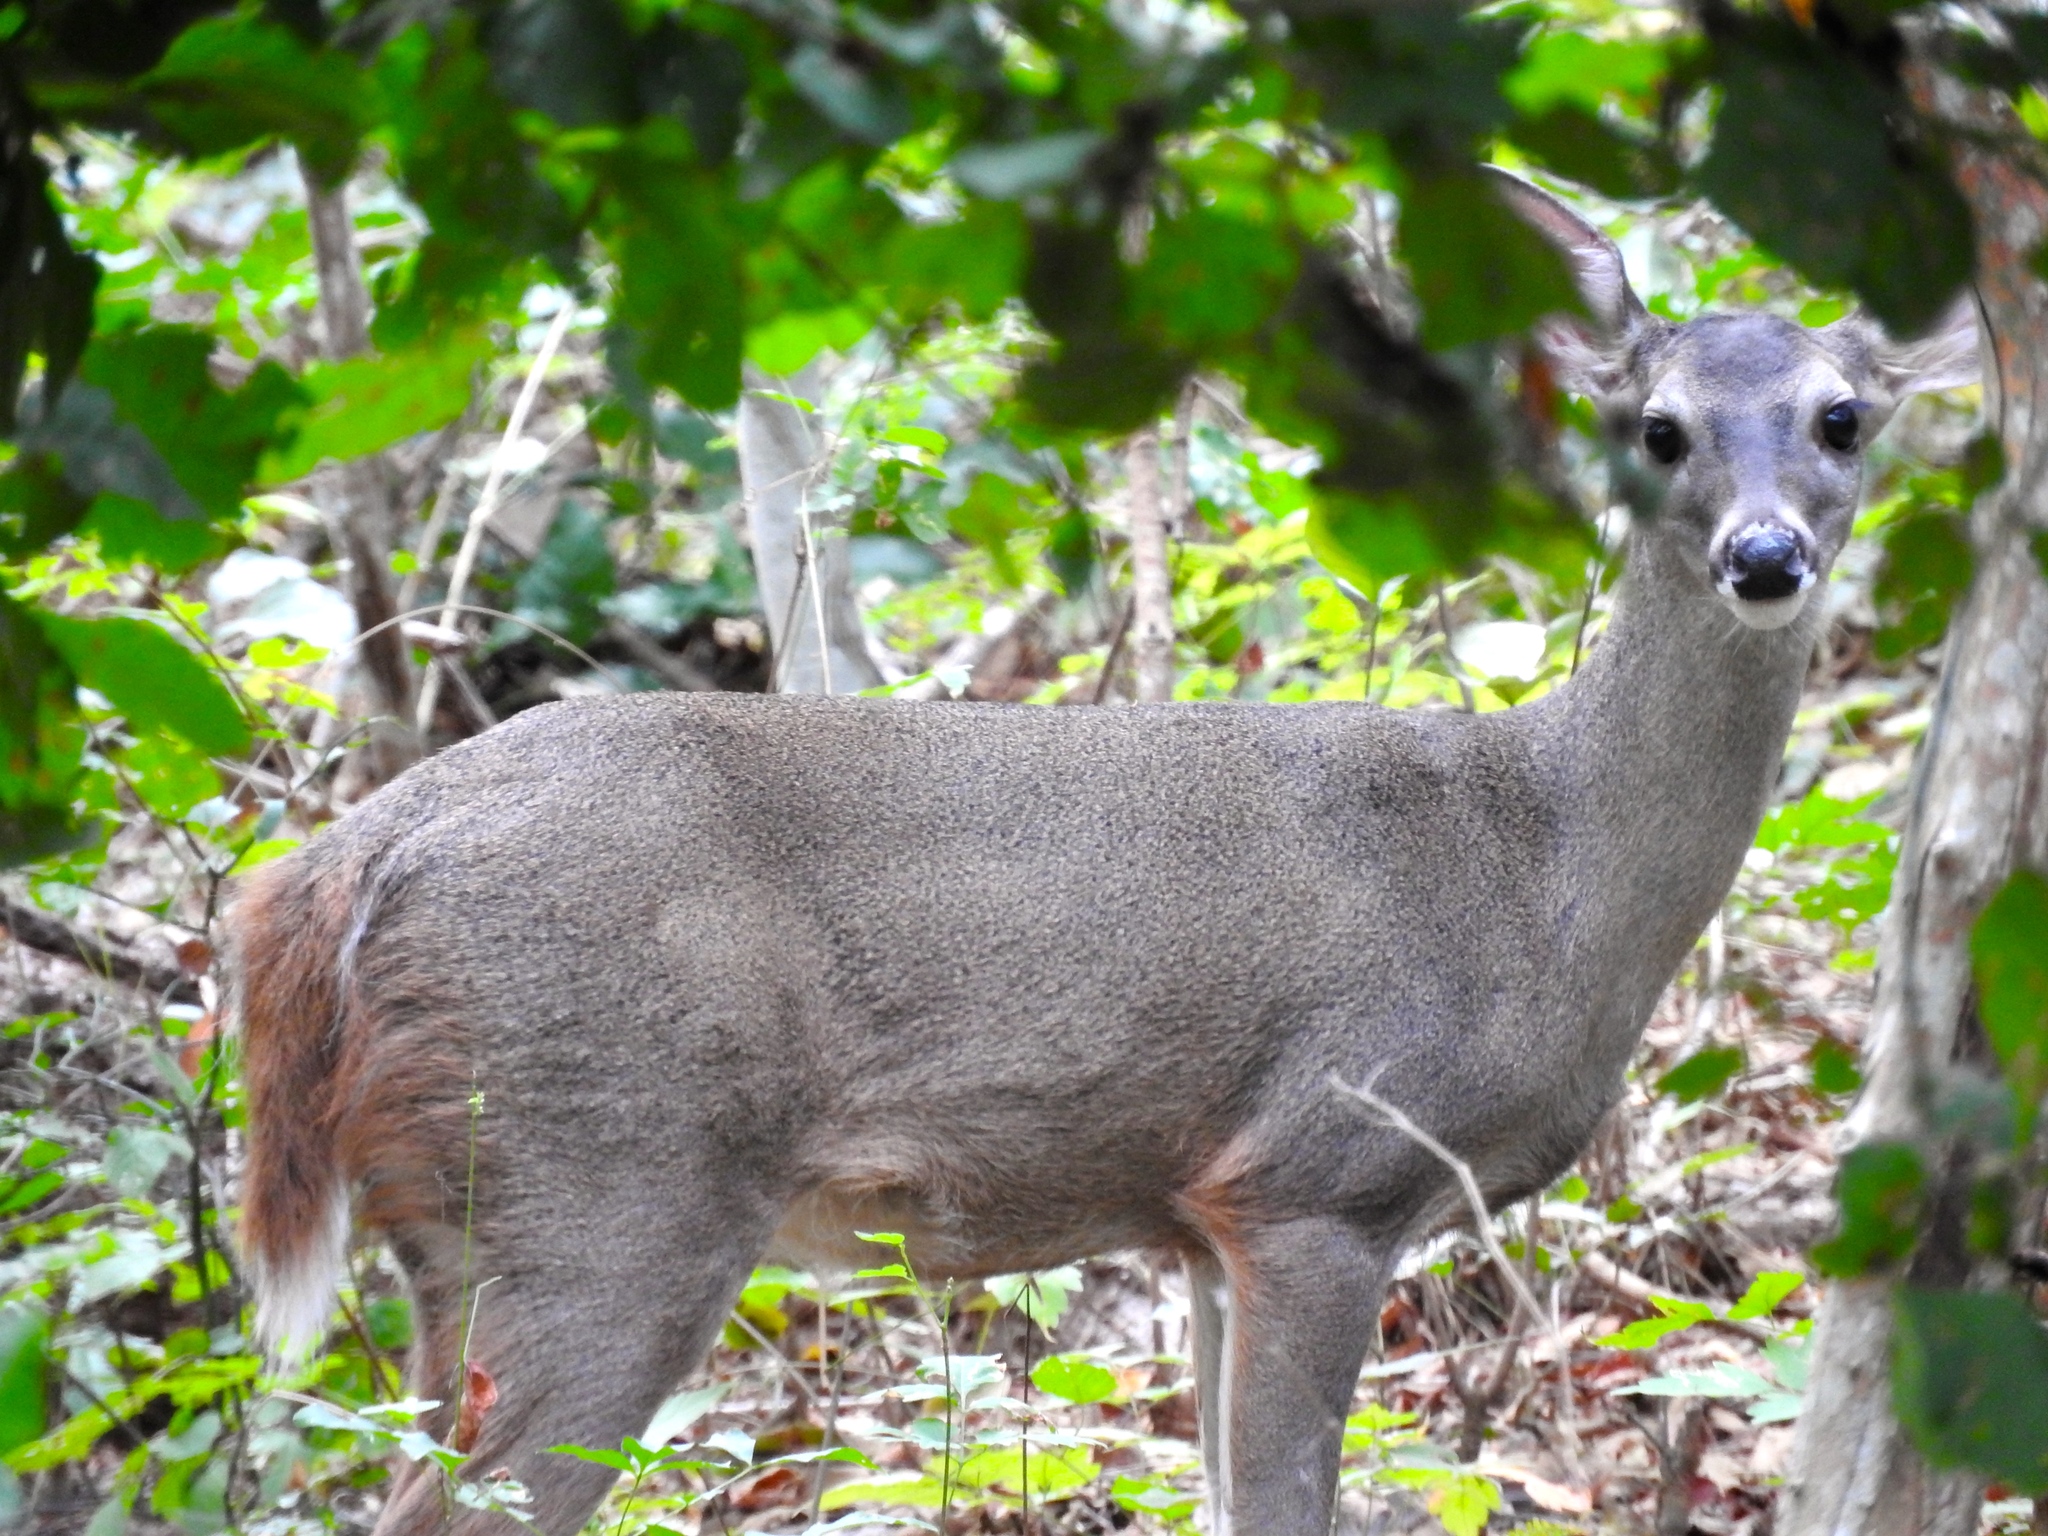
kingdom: Animalia
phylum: Chordata
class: Mammalia
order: Artiodactyla
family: Cervidae
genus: Odocoileus
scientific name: Odocoileus virginianus
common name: White-tailed deer
